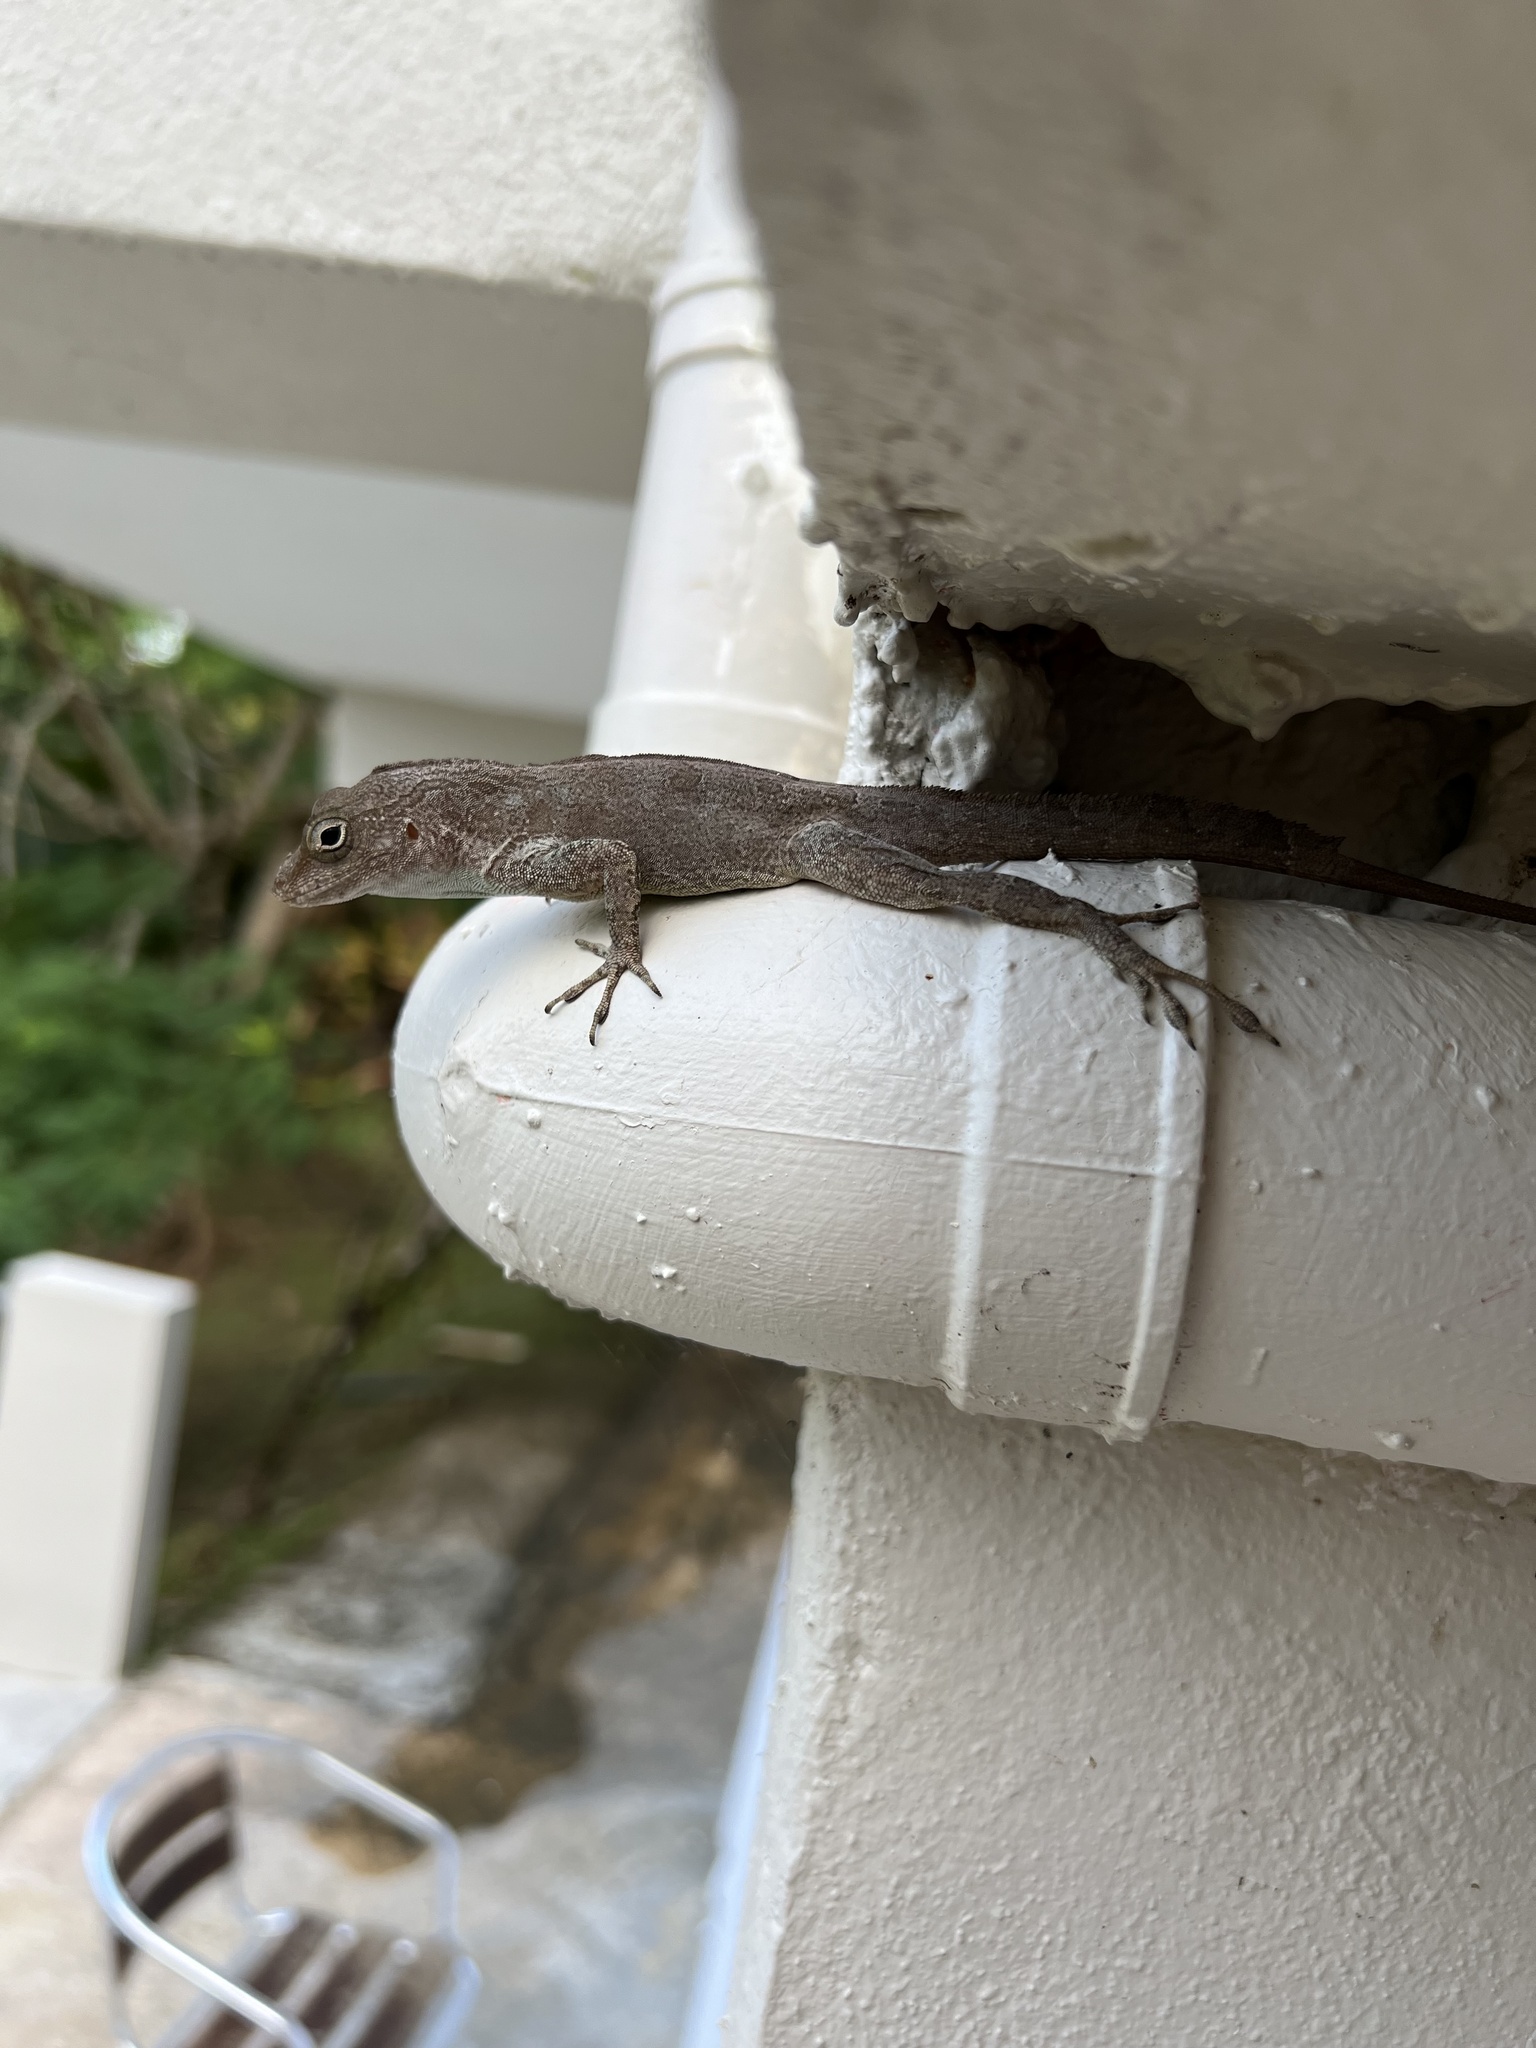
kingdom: Animalia
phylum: Chordata
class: Squamata
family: Dactyloidae
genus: Anolis
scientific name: Anolis cristatellus
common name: Crested anole
